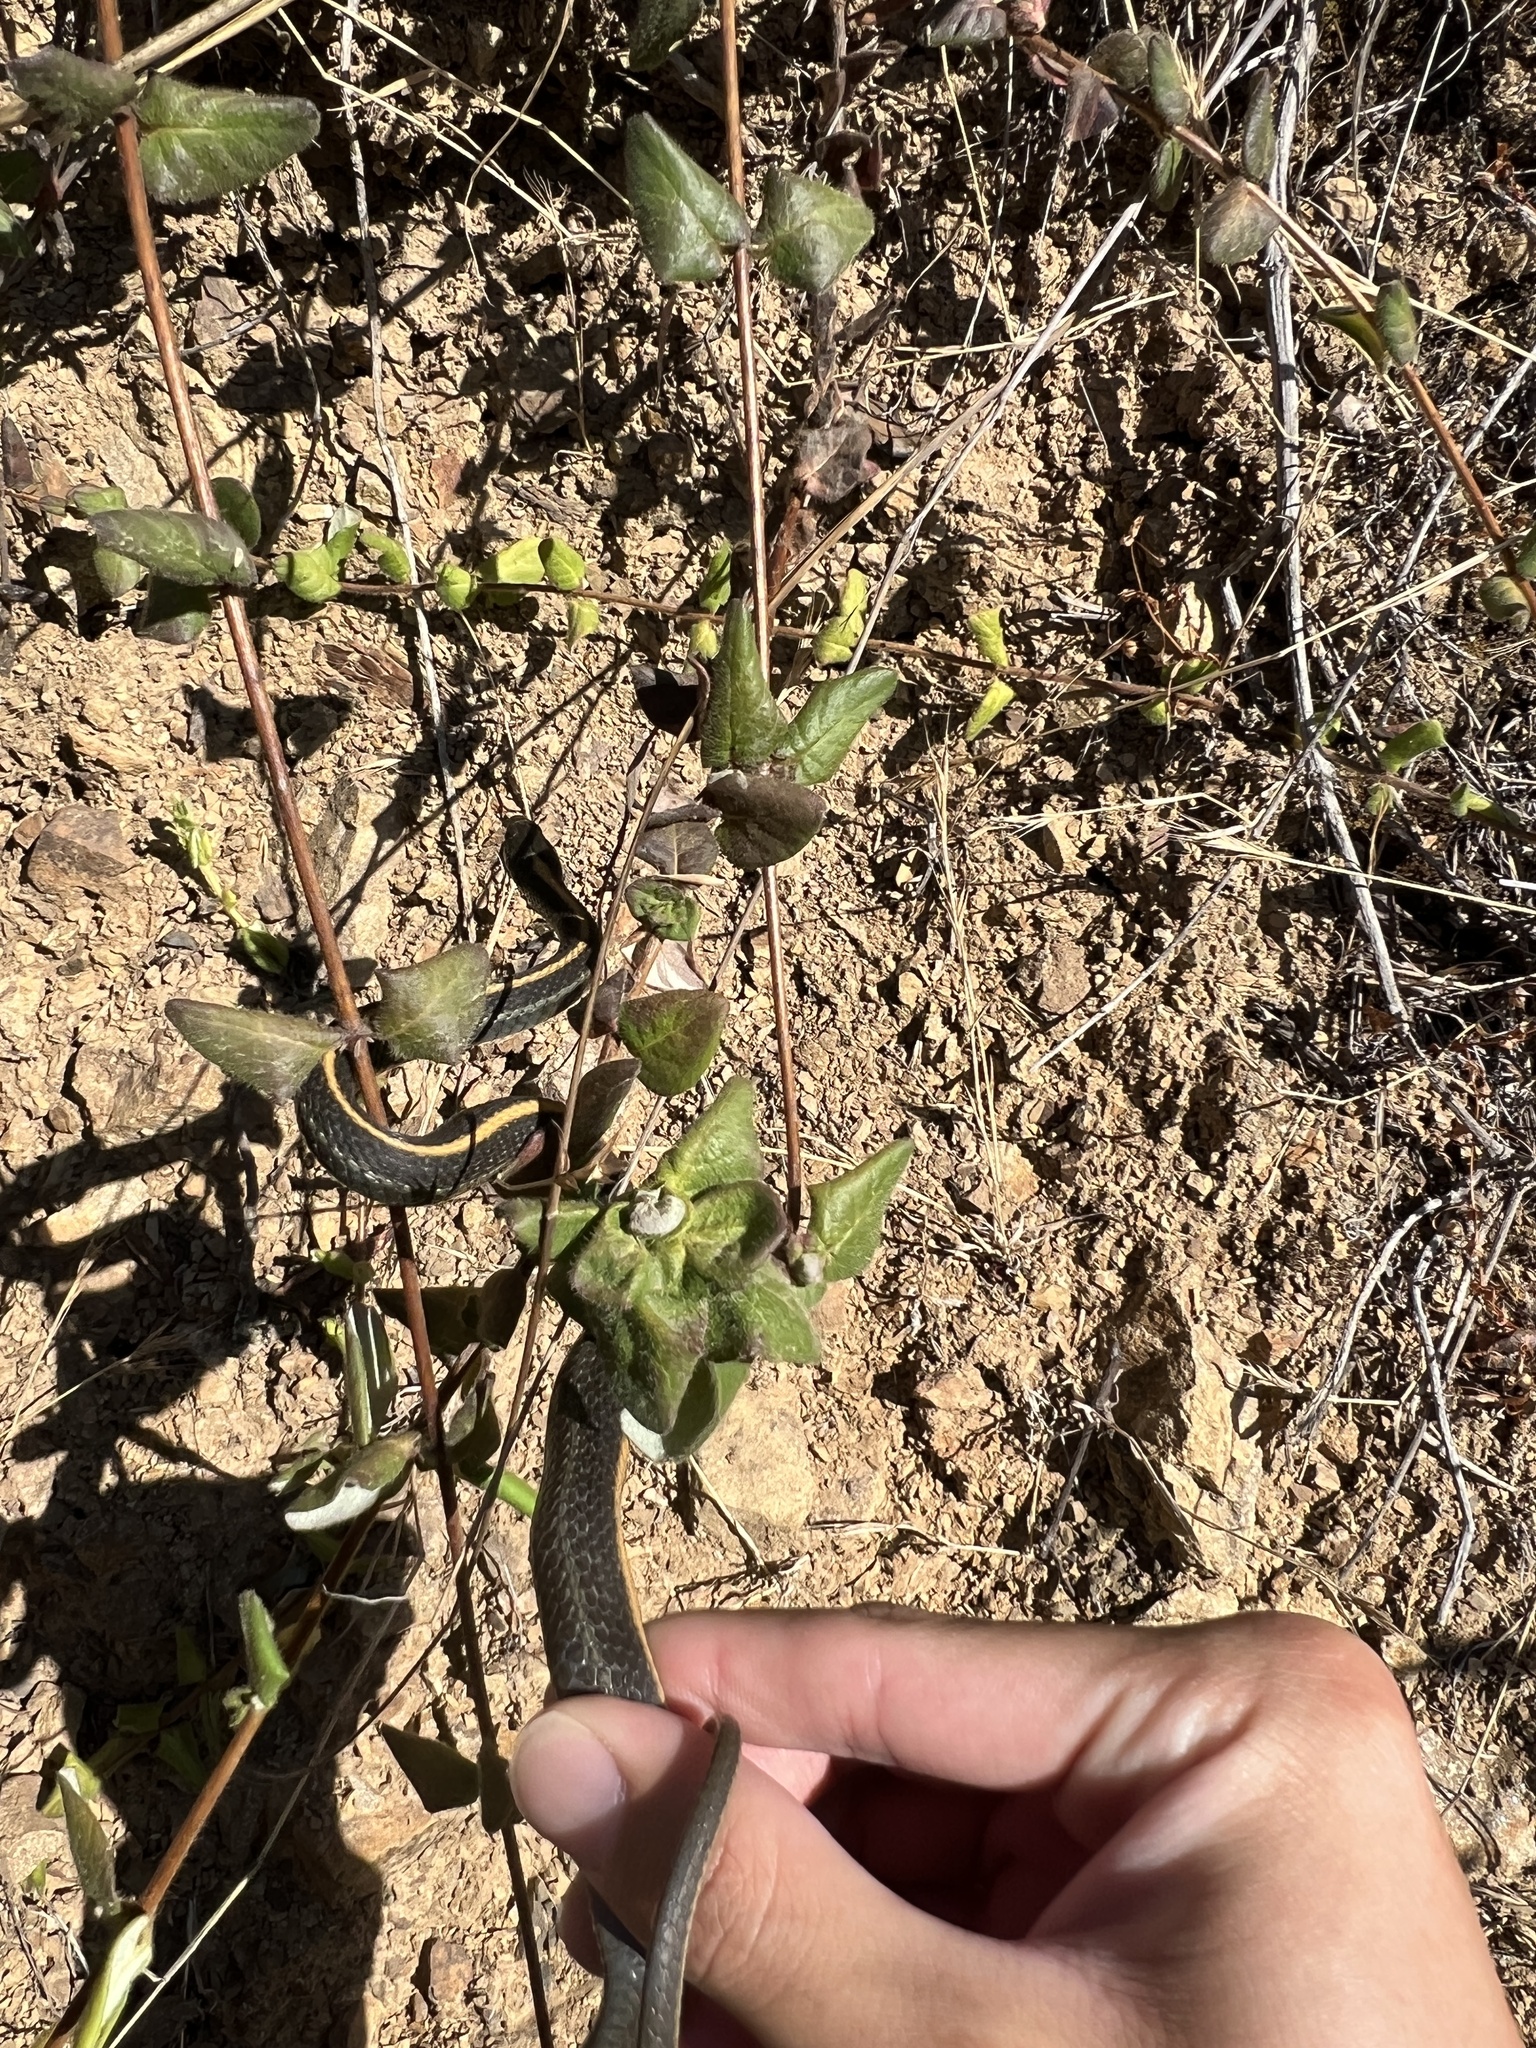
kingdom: Animalia
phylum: Chordata
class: Squamata
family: Colubridae
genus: Thamnophis
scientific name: Thamnophis atratus
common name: Pacific coast aquatic garter snake
